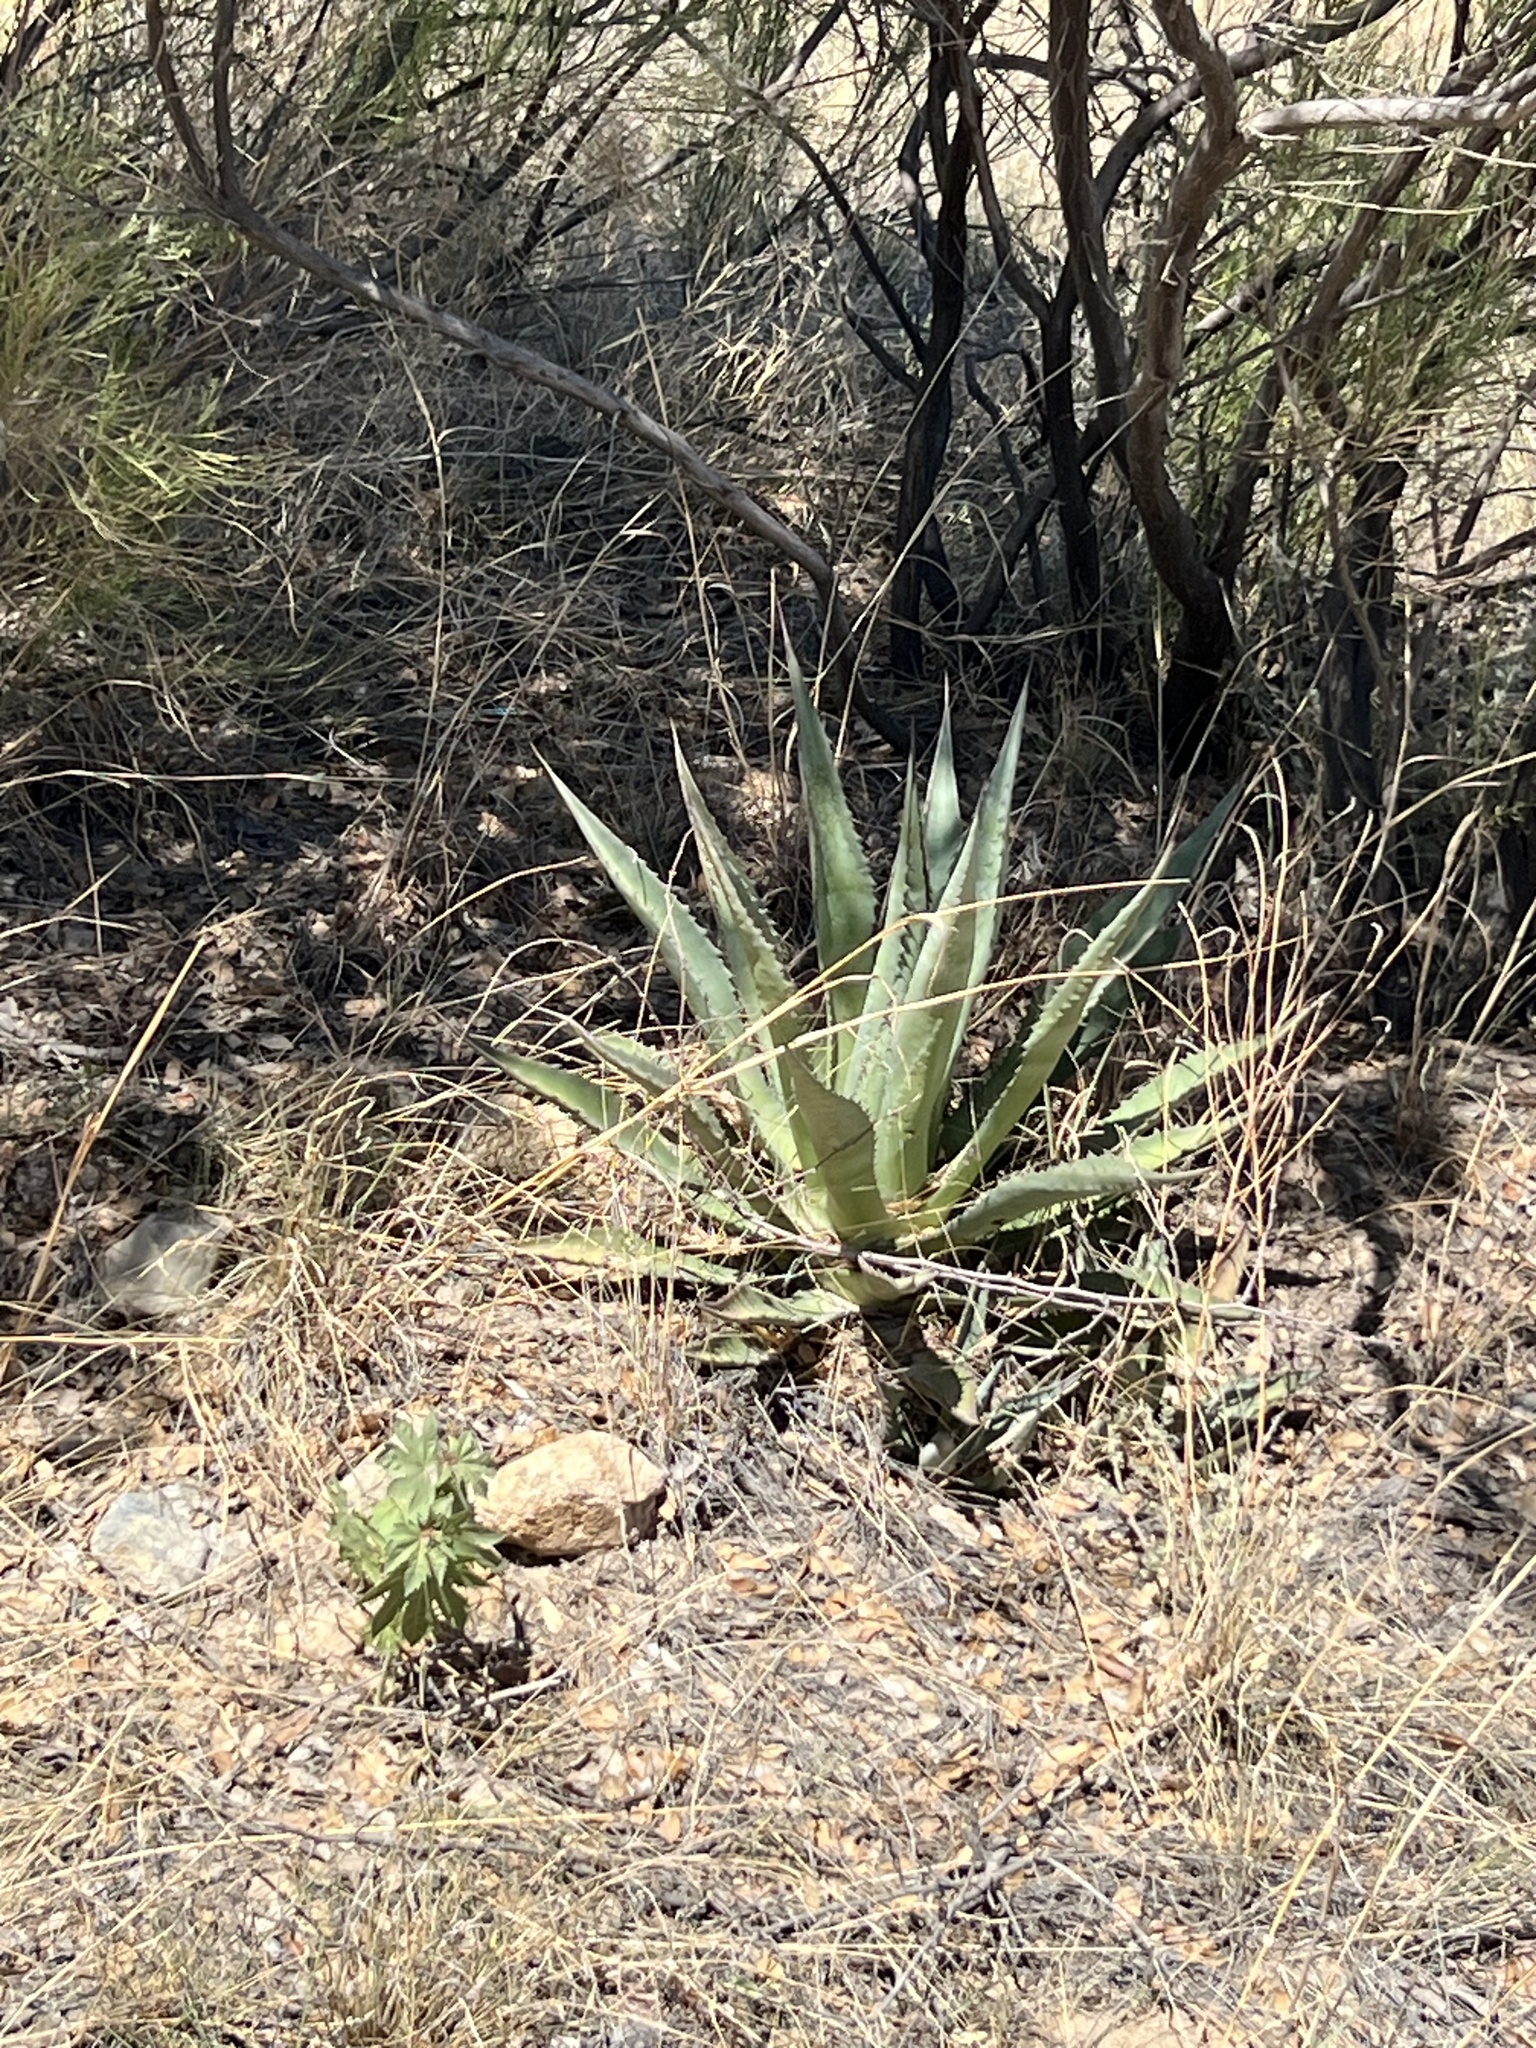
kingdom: Plantae
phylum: Tracheophyta
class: Liliopsida
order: Asparagales
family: Asparagaceae
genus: Agave
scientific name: Agave palmeri
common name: Palmer agave
